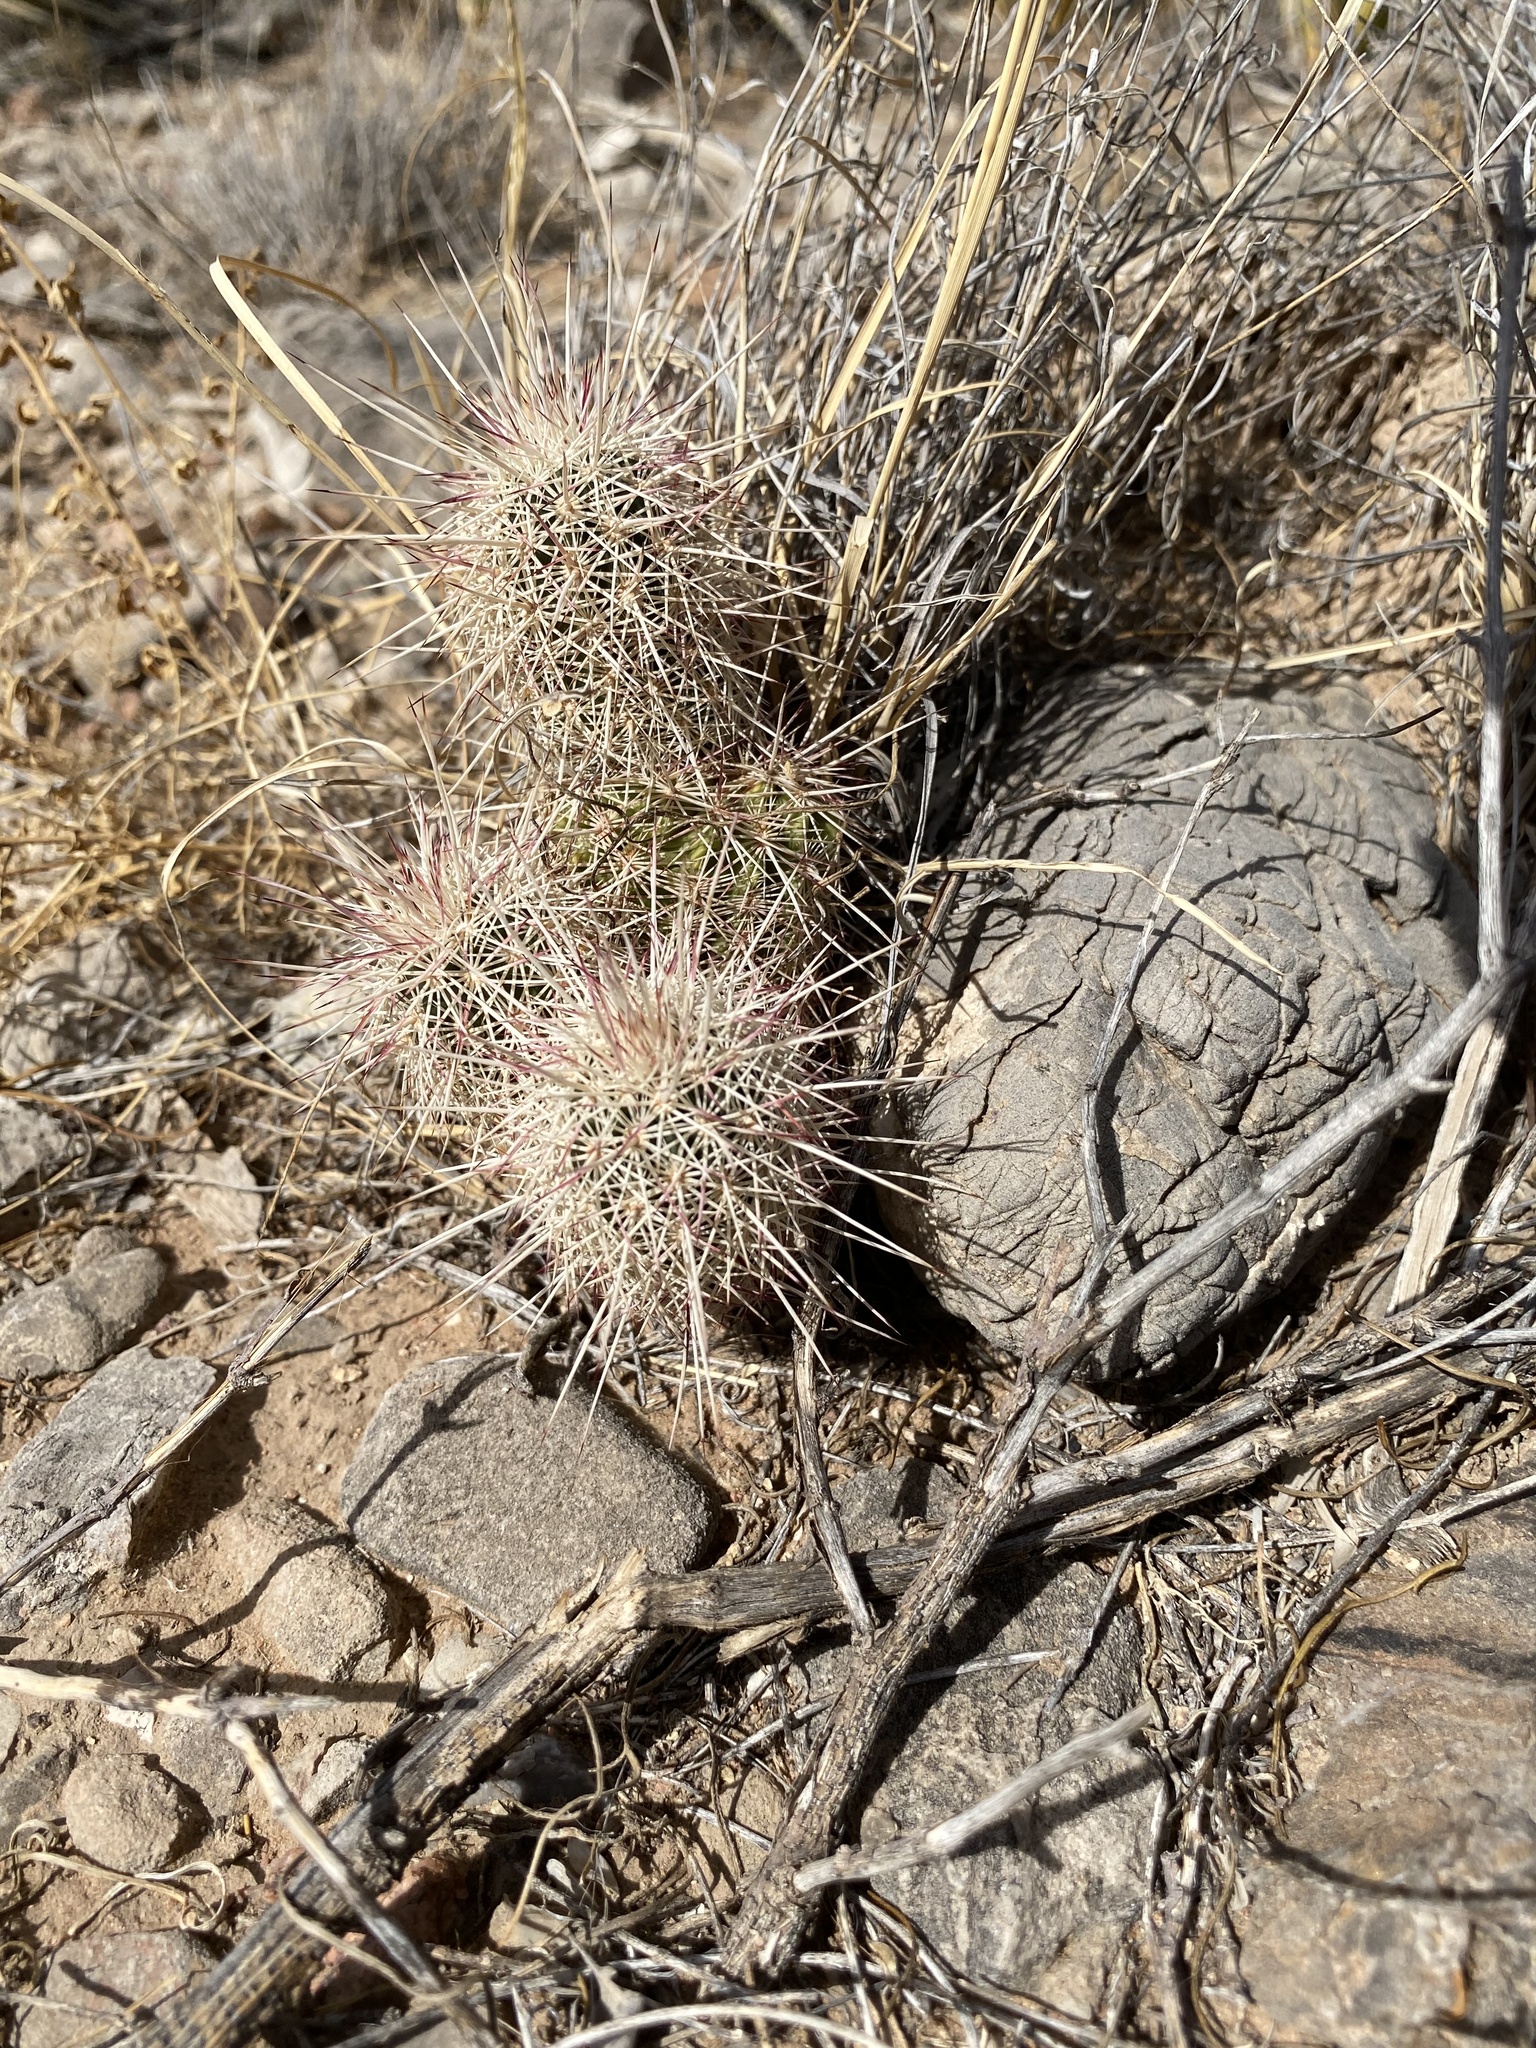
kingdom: Plantae
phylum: Tracheophyta
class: Magnoliopsida
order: Caryophyllales
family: Cactaceae
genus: Echinocereus
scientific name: Echinocereus viridiflorus
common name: Nylon hedgehog cactus
